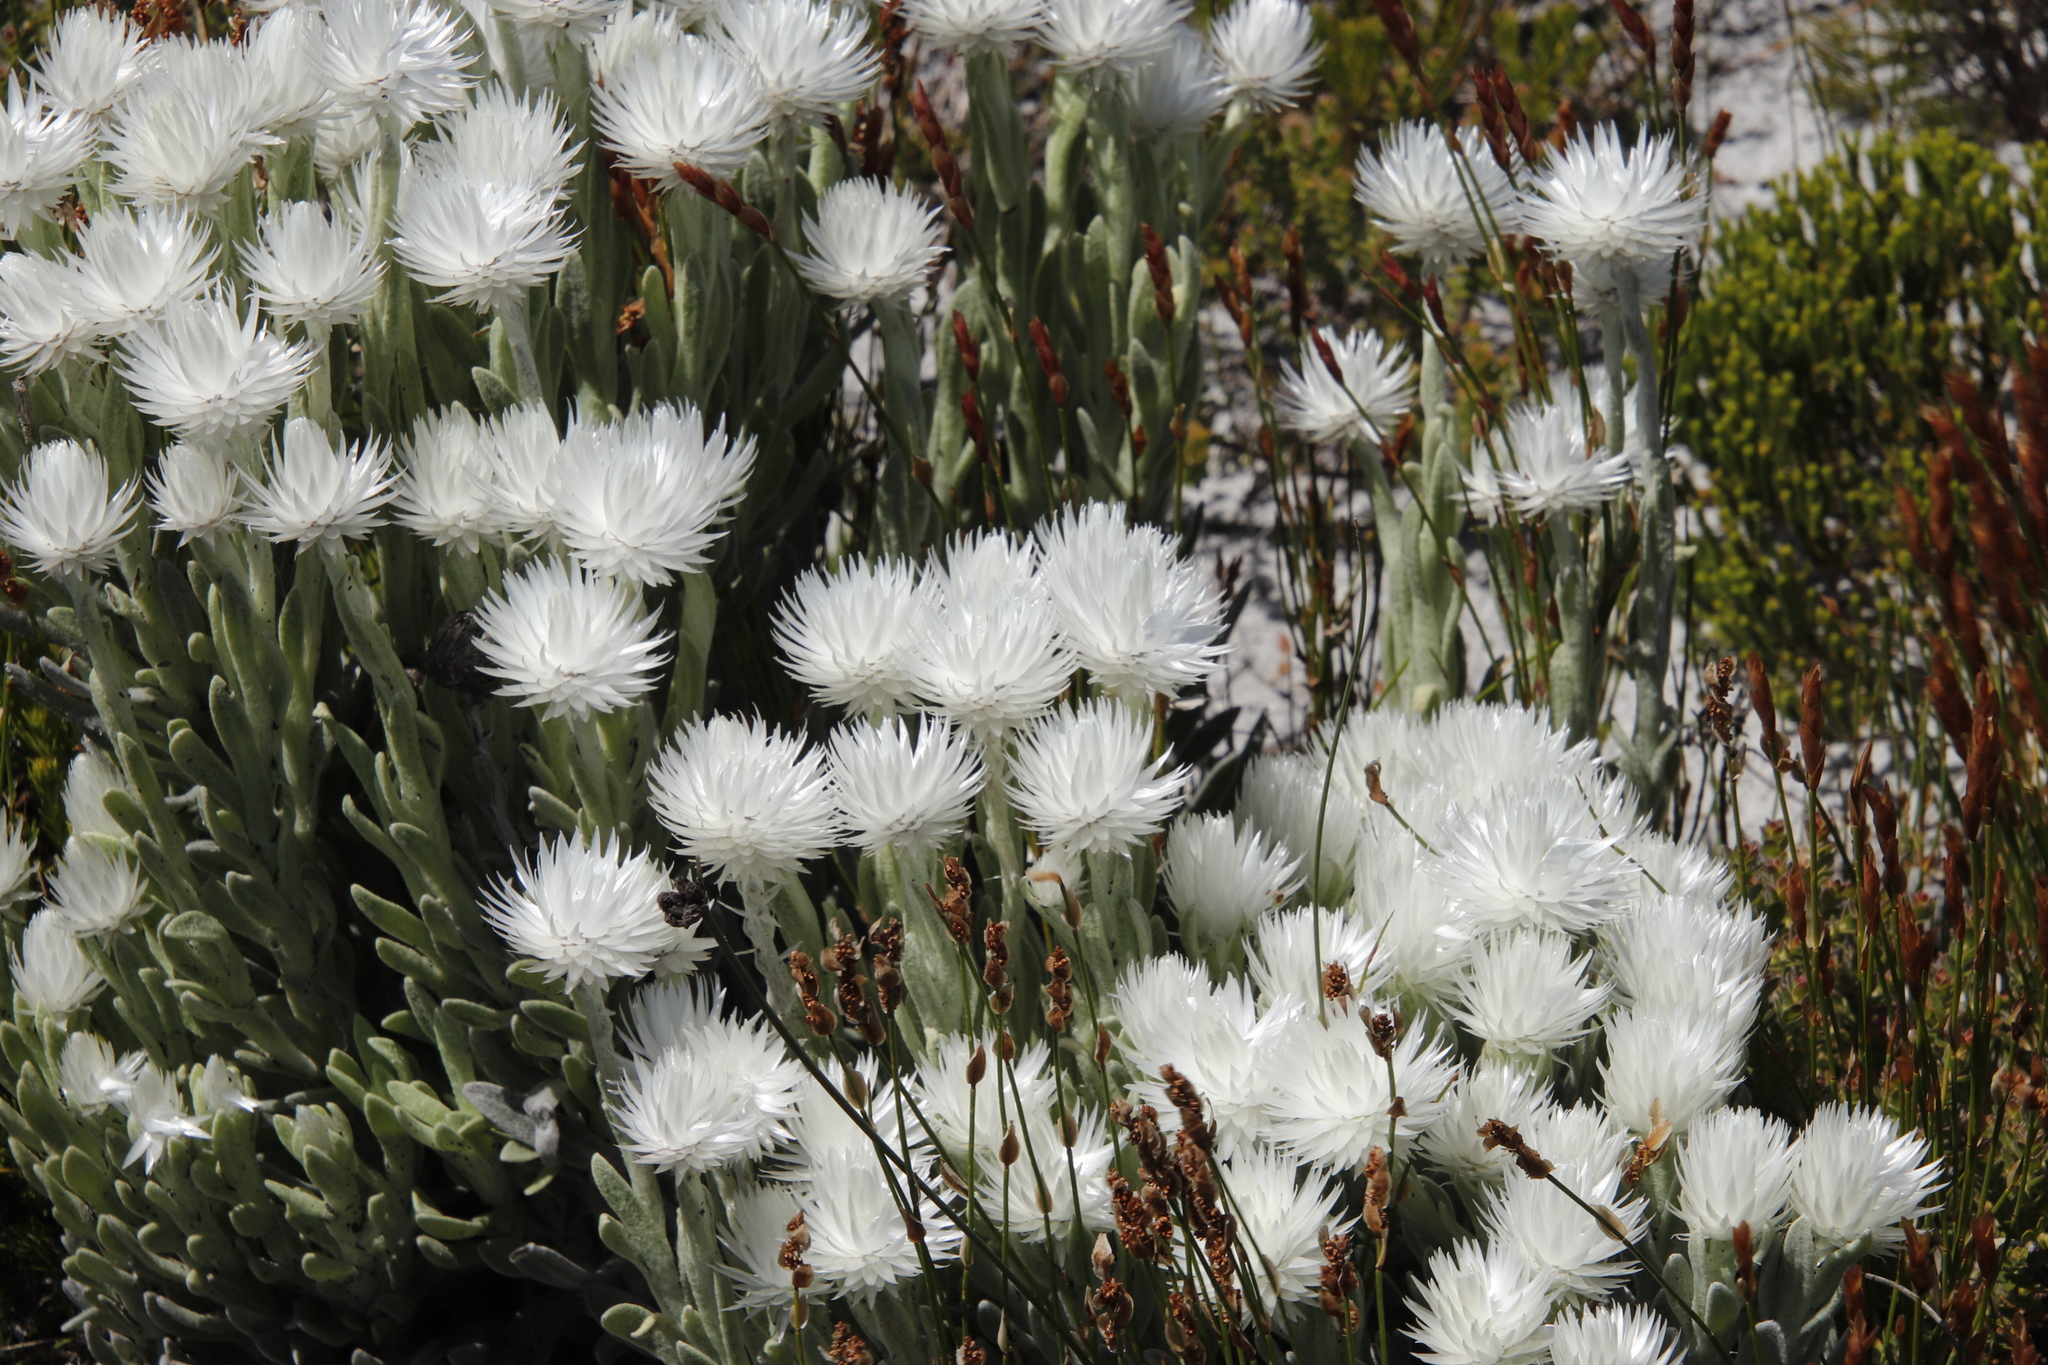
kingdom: Plantae
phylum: Tracheophyta
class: Magnoliopsida
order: Asterales
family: Asteraceae
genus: Syncarpha
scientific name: Syncarpha vestita
